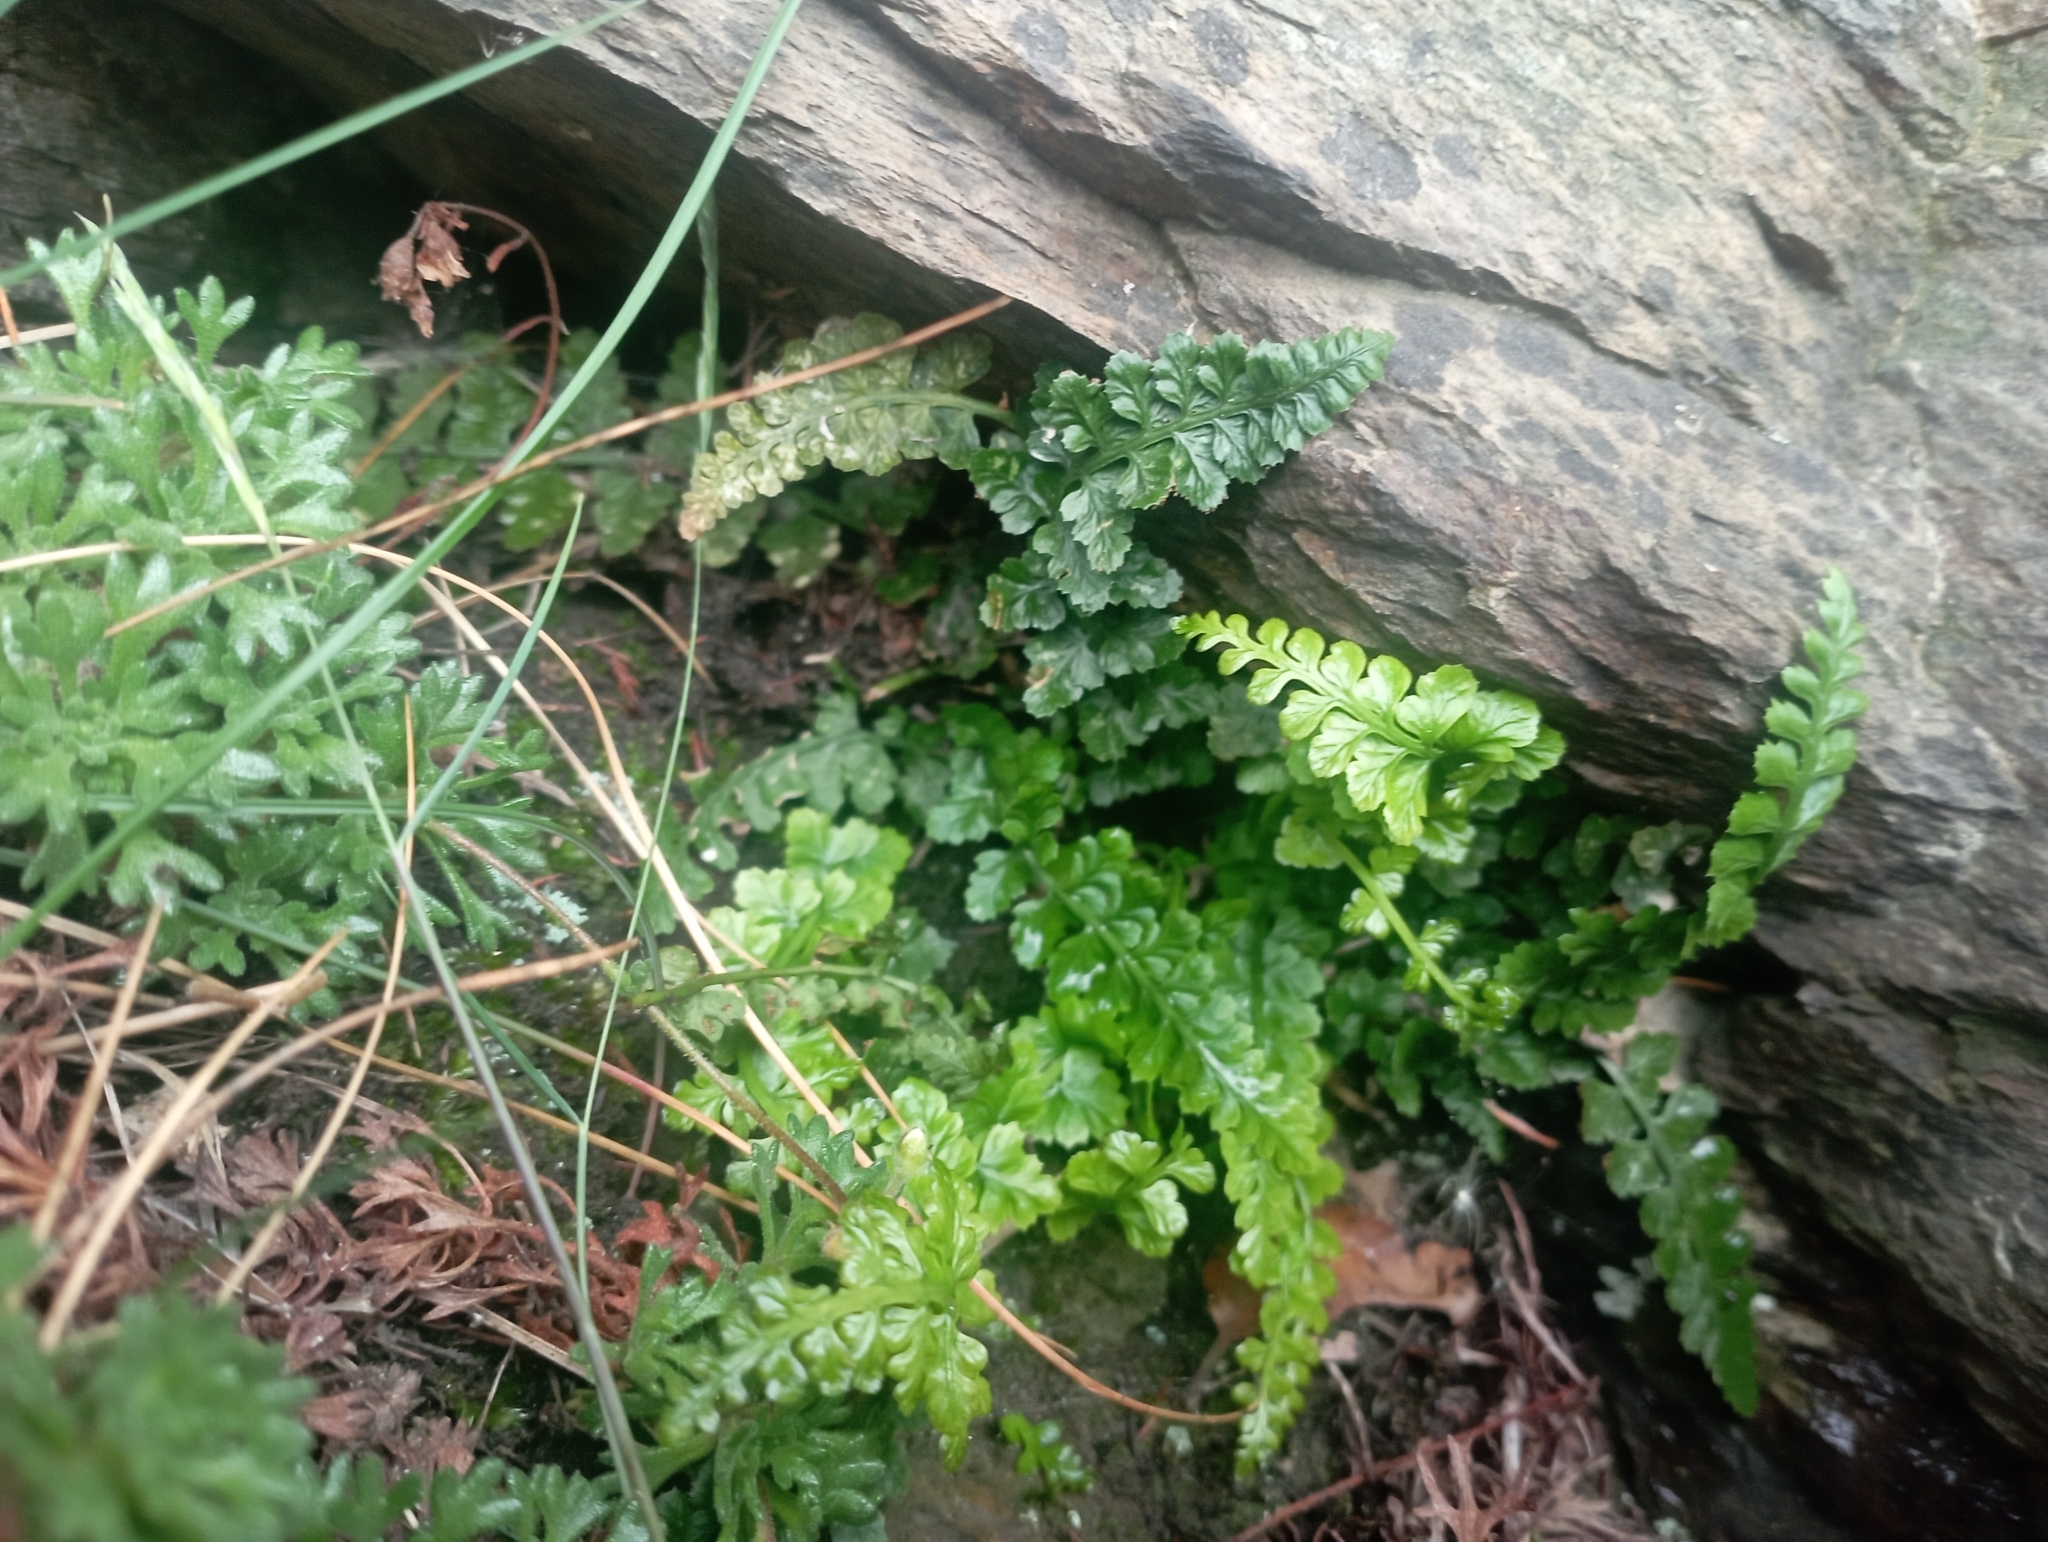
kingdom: Plantae
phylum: Tracheophyta
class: Polypodiopsida
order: Polypodiales
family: Aspleniaceae
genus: Asplenium
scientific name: Asplenium foreziense
